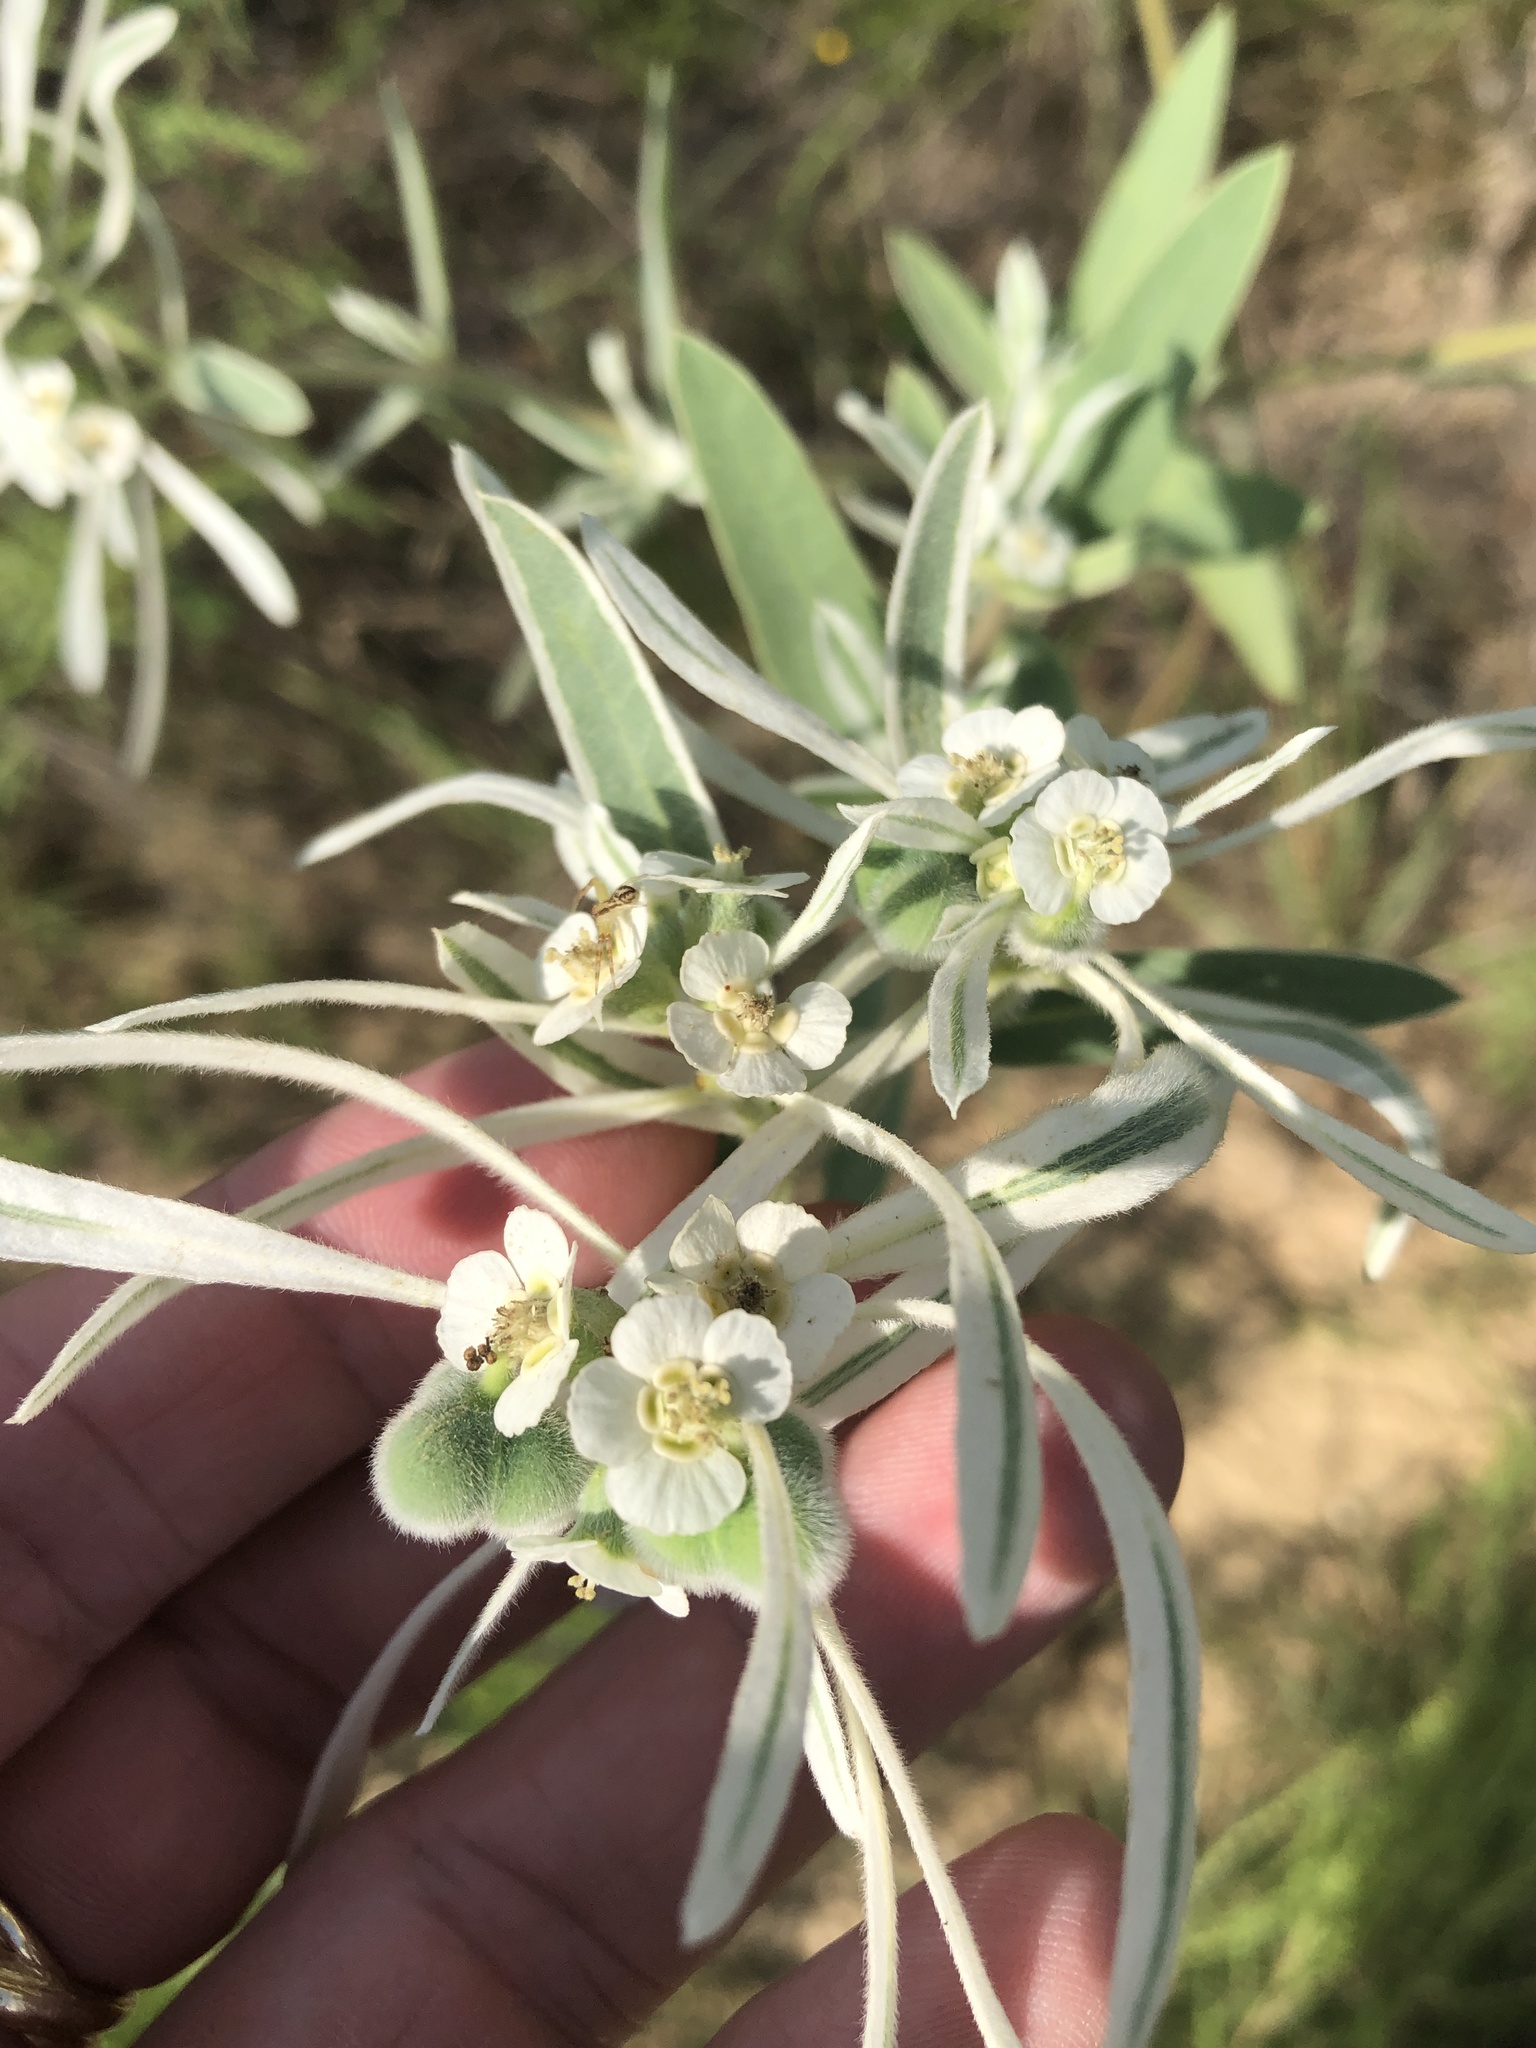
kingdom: Plantae
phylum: Tracheophyta
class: Magnoliopsida
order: Malpighiales
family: Euphorbiaceae
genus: Euphorbia
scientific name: Euphorbia bicolor
